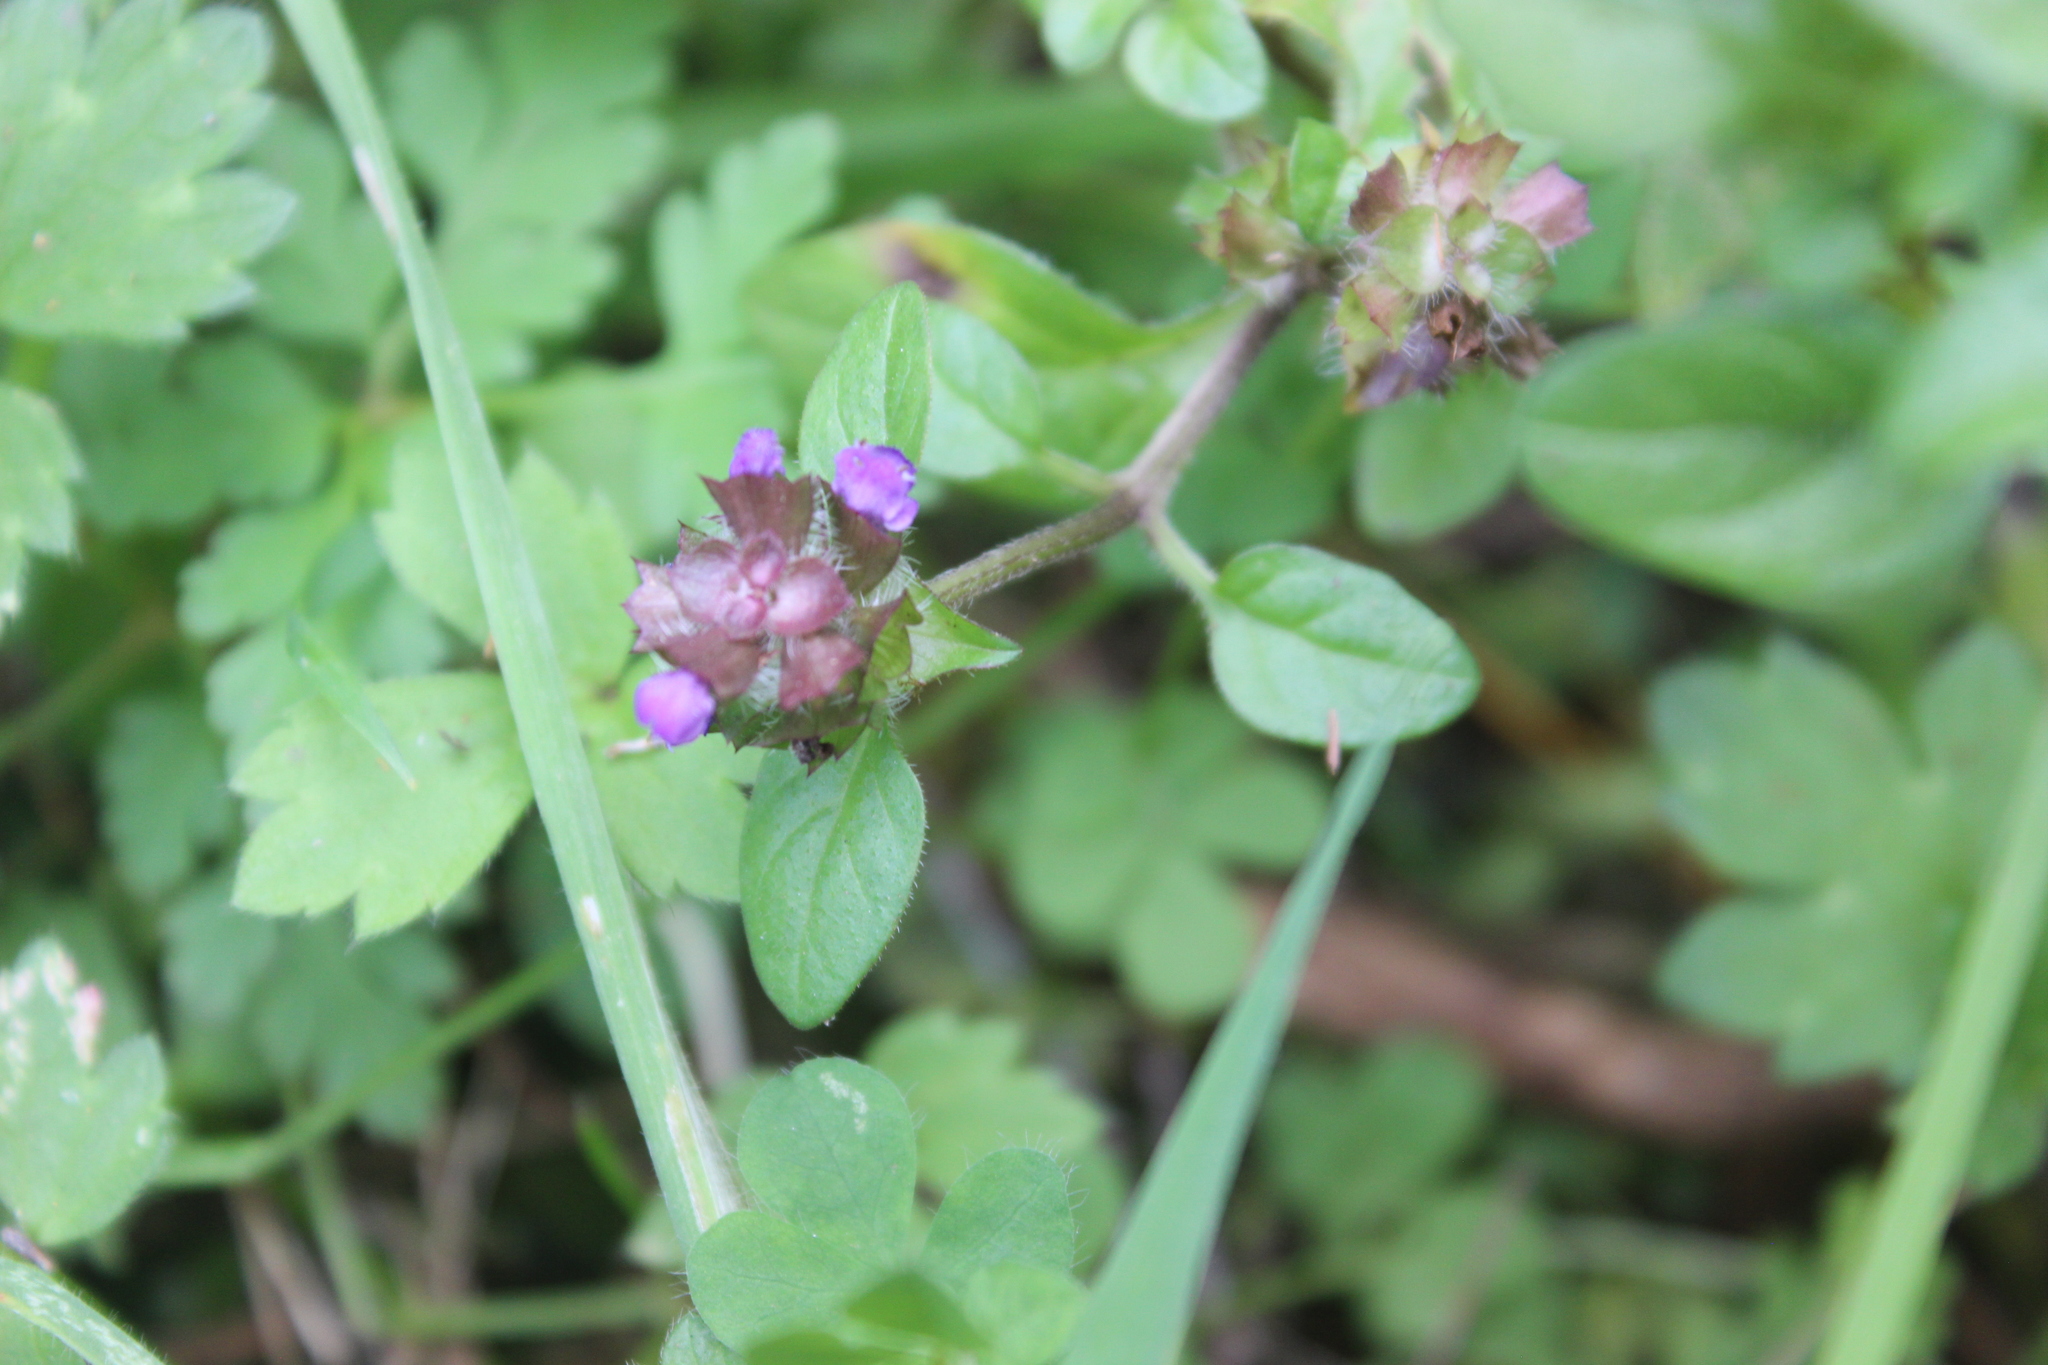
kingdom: Plantae
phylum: Tracheophyta
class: Magnoliopsida
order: Lamiales
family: Lamiaceae
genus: Prunella
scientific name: Prunella vulgaris
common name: Heal-all
